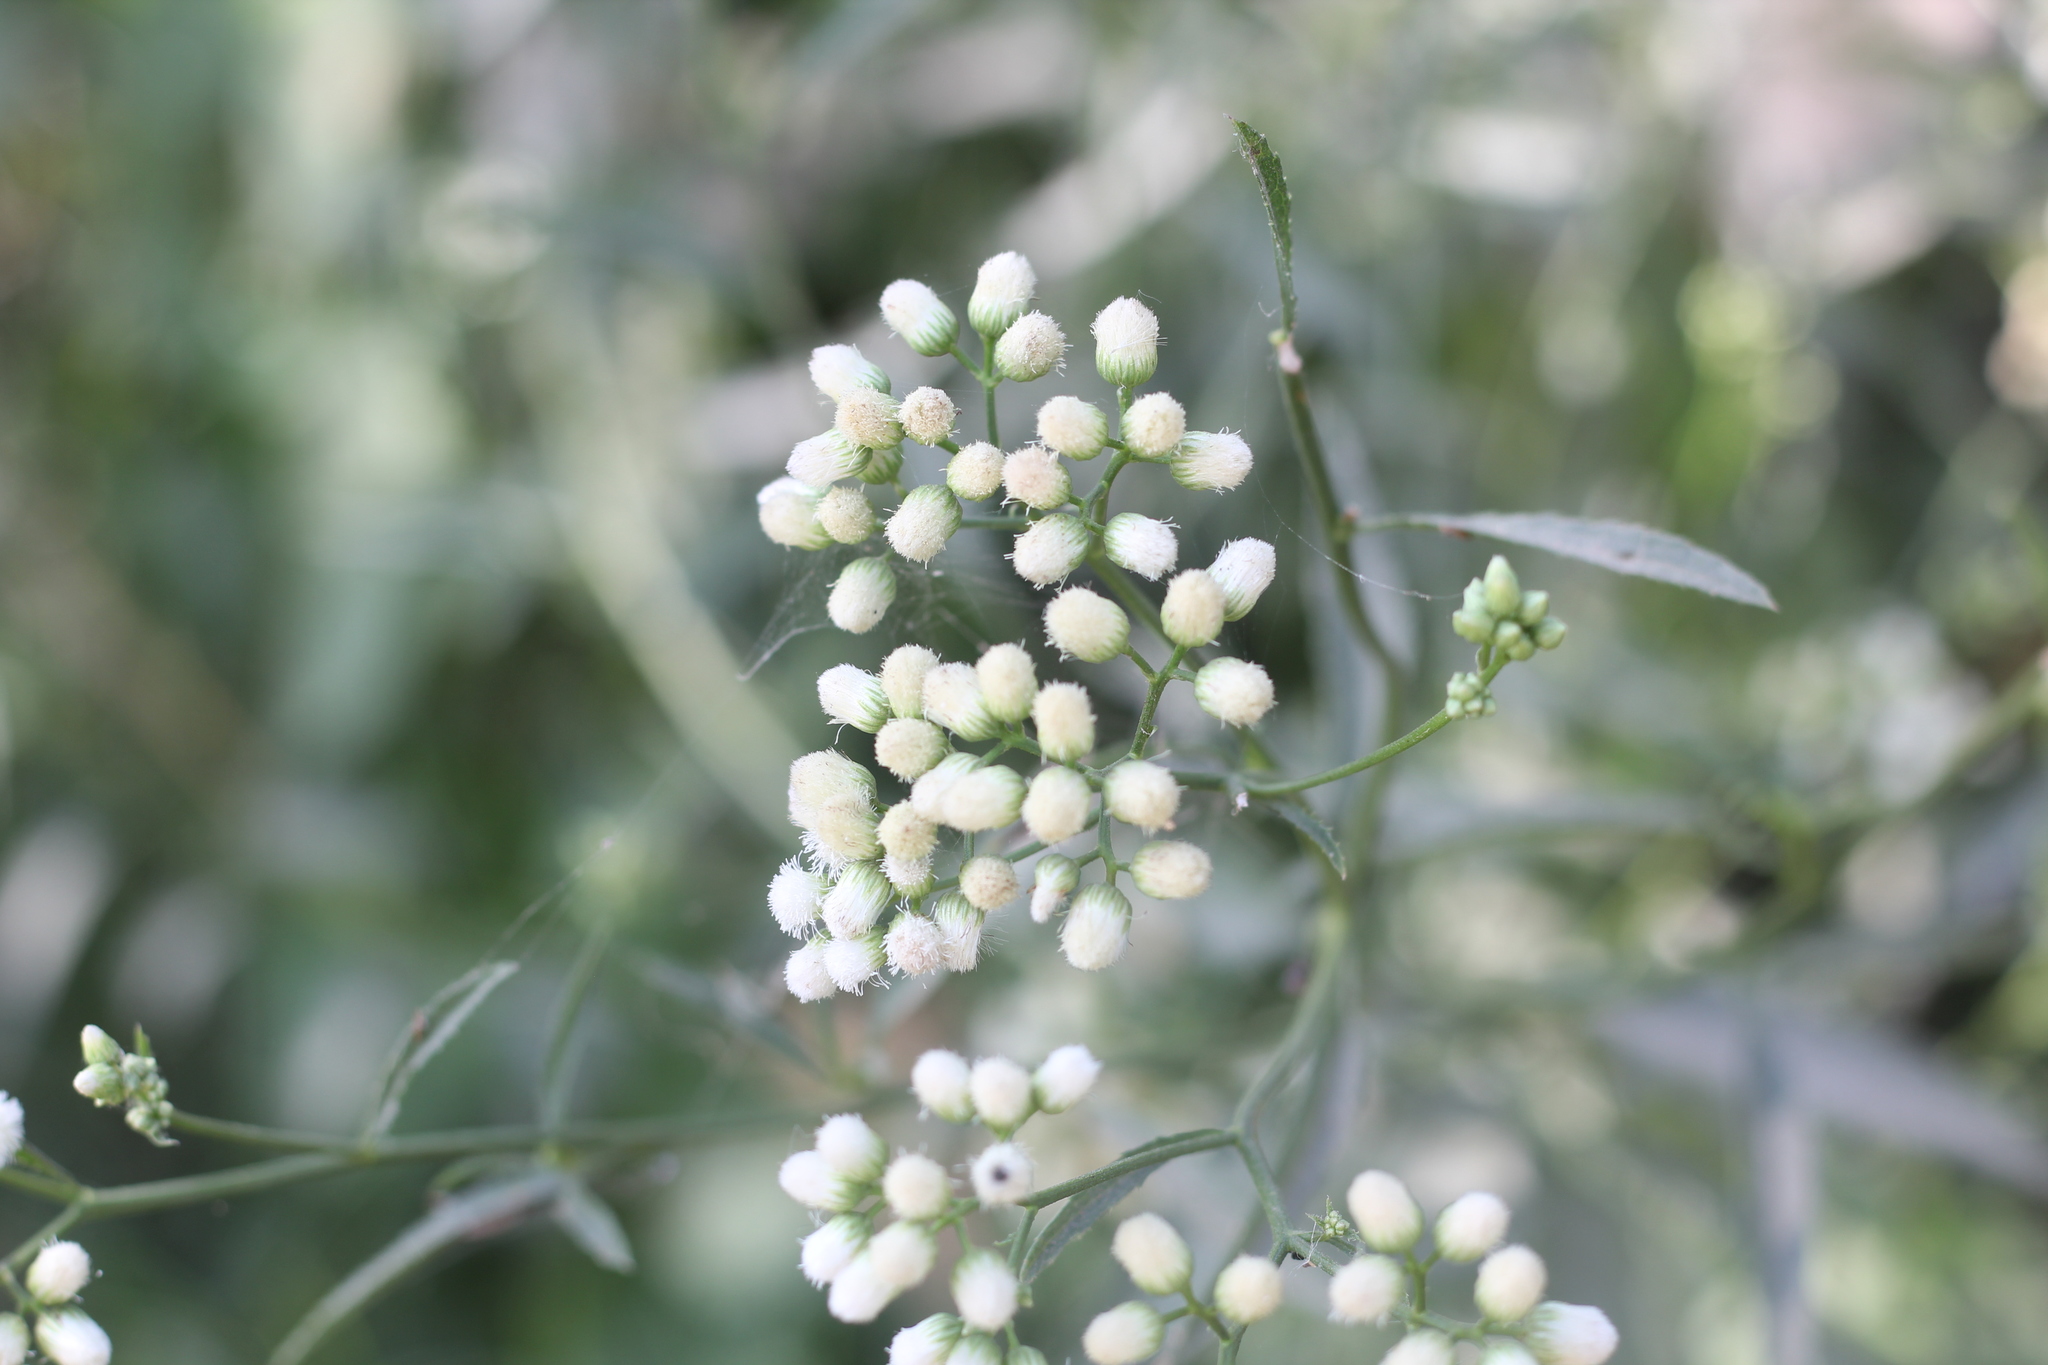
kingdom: Plantae
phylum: Tracheophyta
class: Magnoliopsida
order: Asterales
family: Asteraceae
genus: Baccharis
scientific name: Baccharis glutinosa
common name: Saltmarsh baccharis
